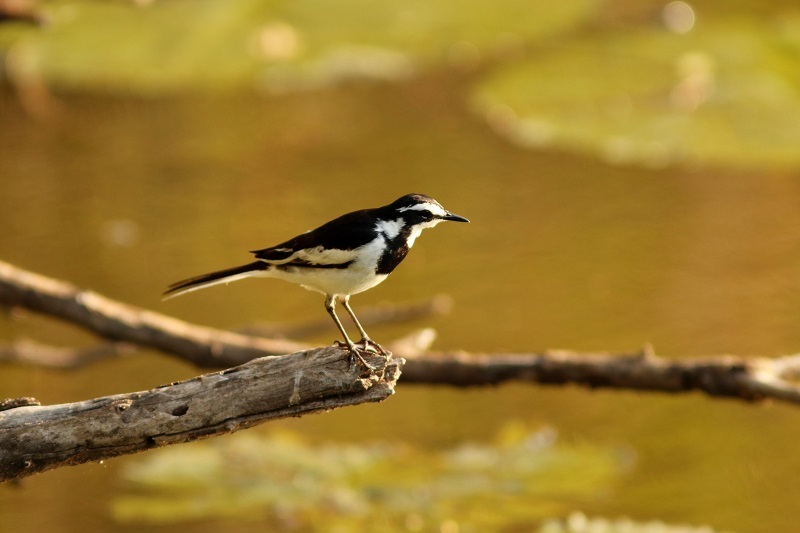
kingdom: Animalia
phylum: Chordata
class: Aves
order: Passeriformes
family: Motacillidae
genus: Motacilla
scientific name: Motacilla aguimp
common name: African pied wagtail
